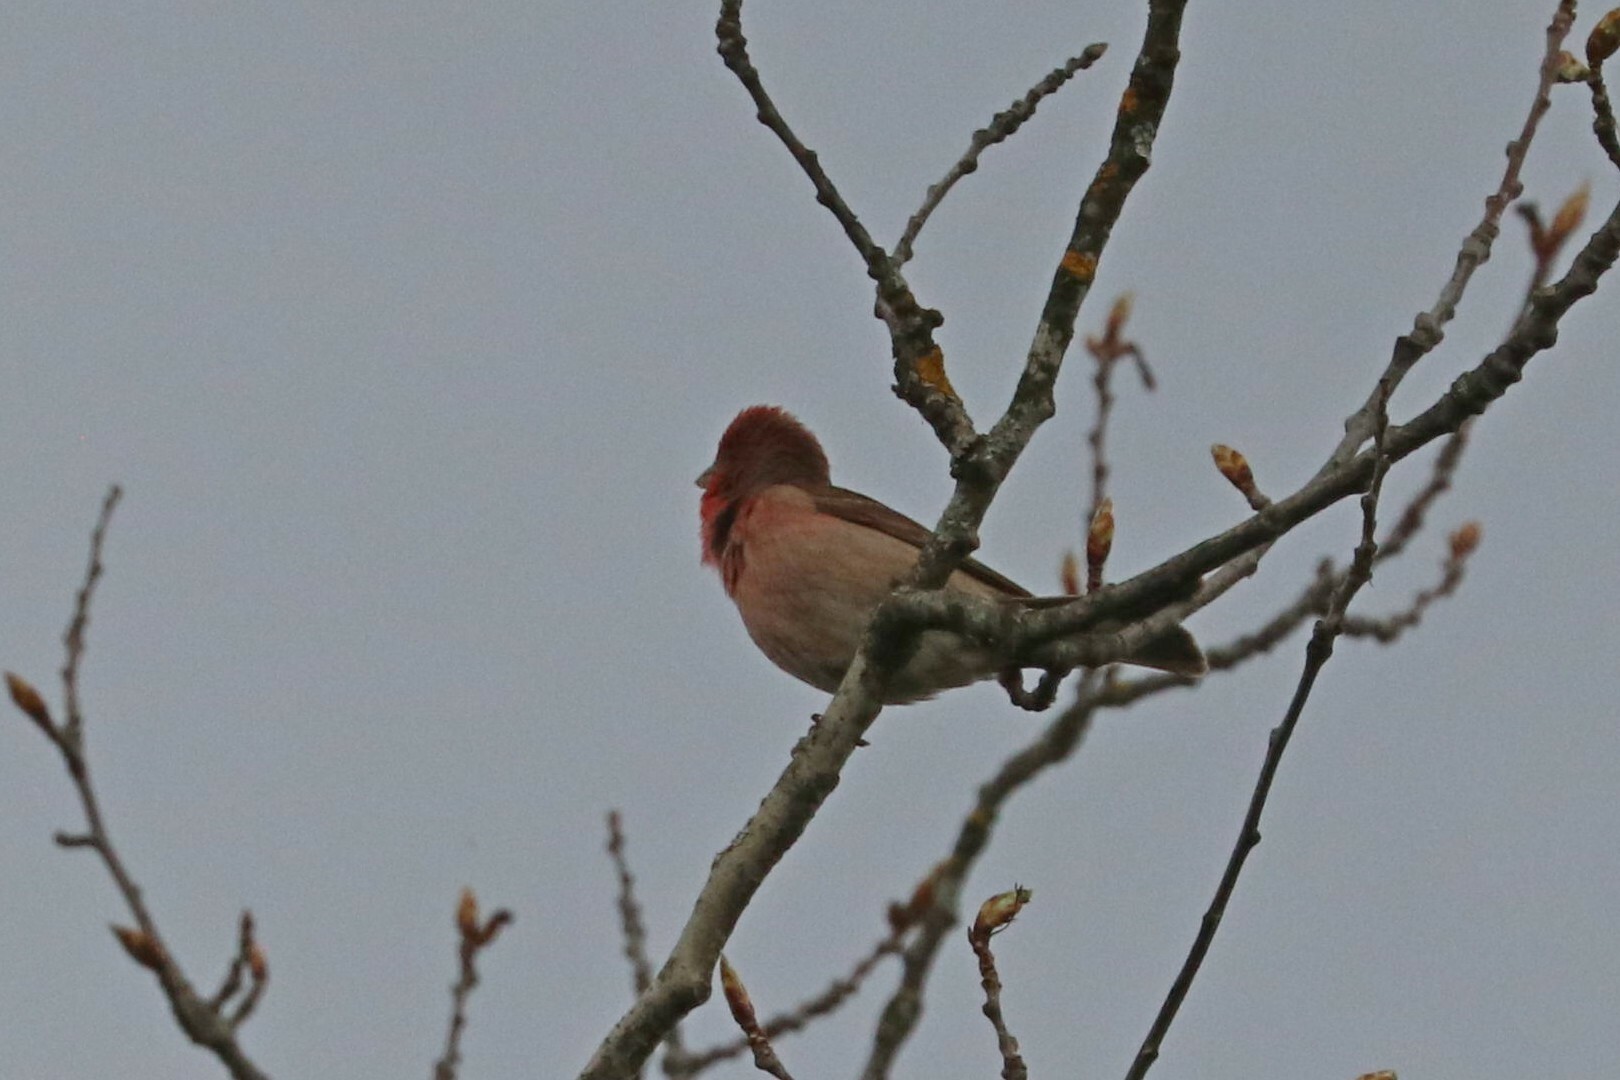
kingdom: Animalia
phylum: Chordata
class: Aves
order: Passeriformes
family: Fringillidae
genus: Carpodacus
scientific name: Carpodacus erythrinus
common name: Common rosefinch
